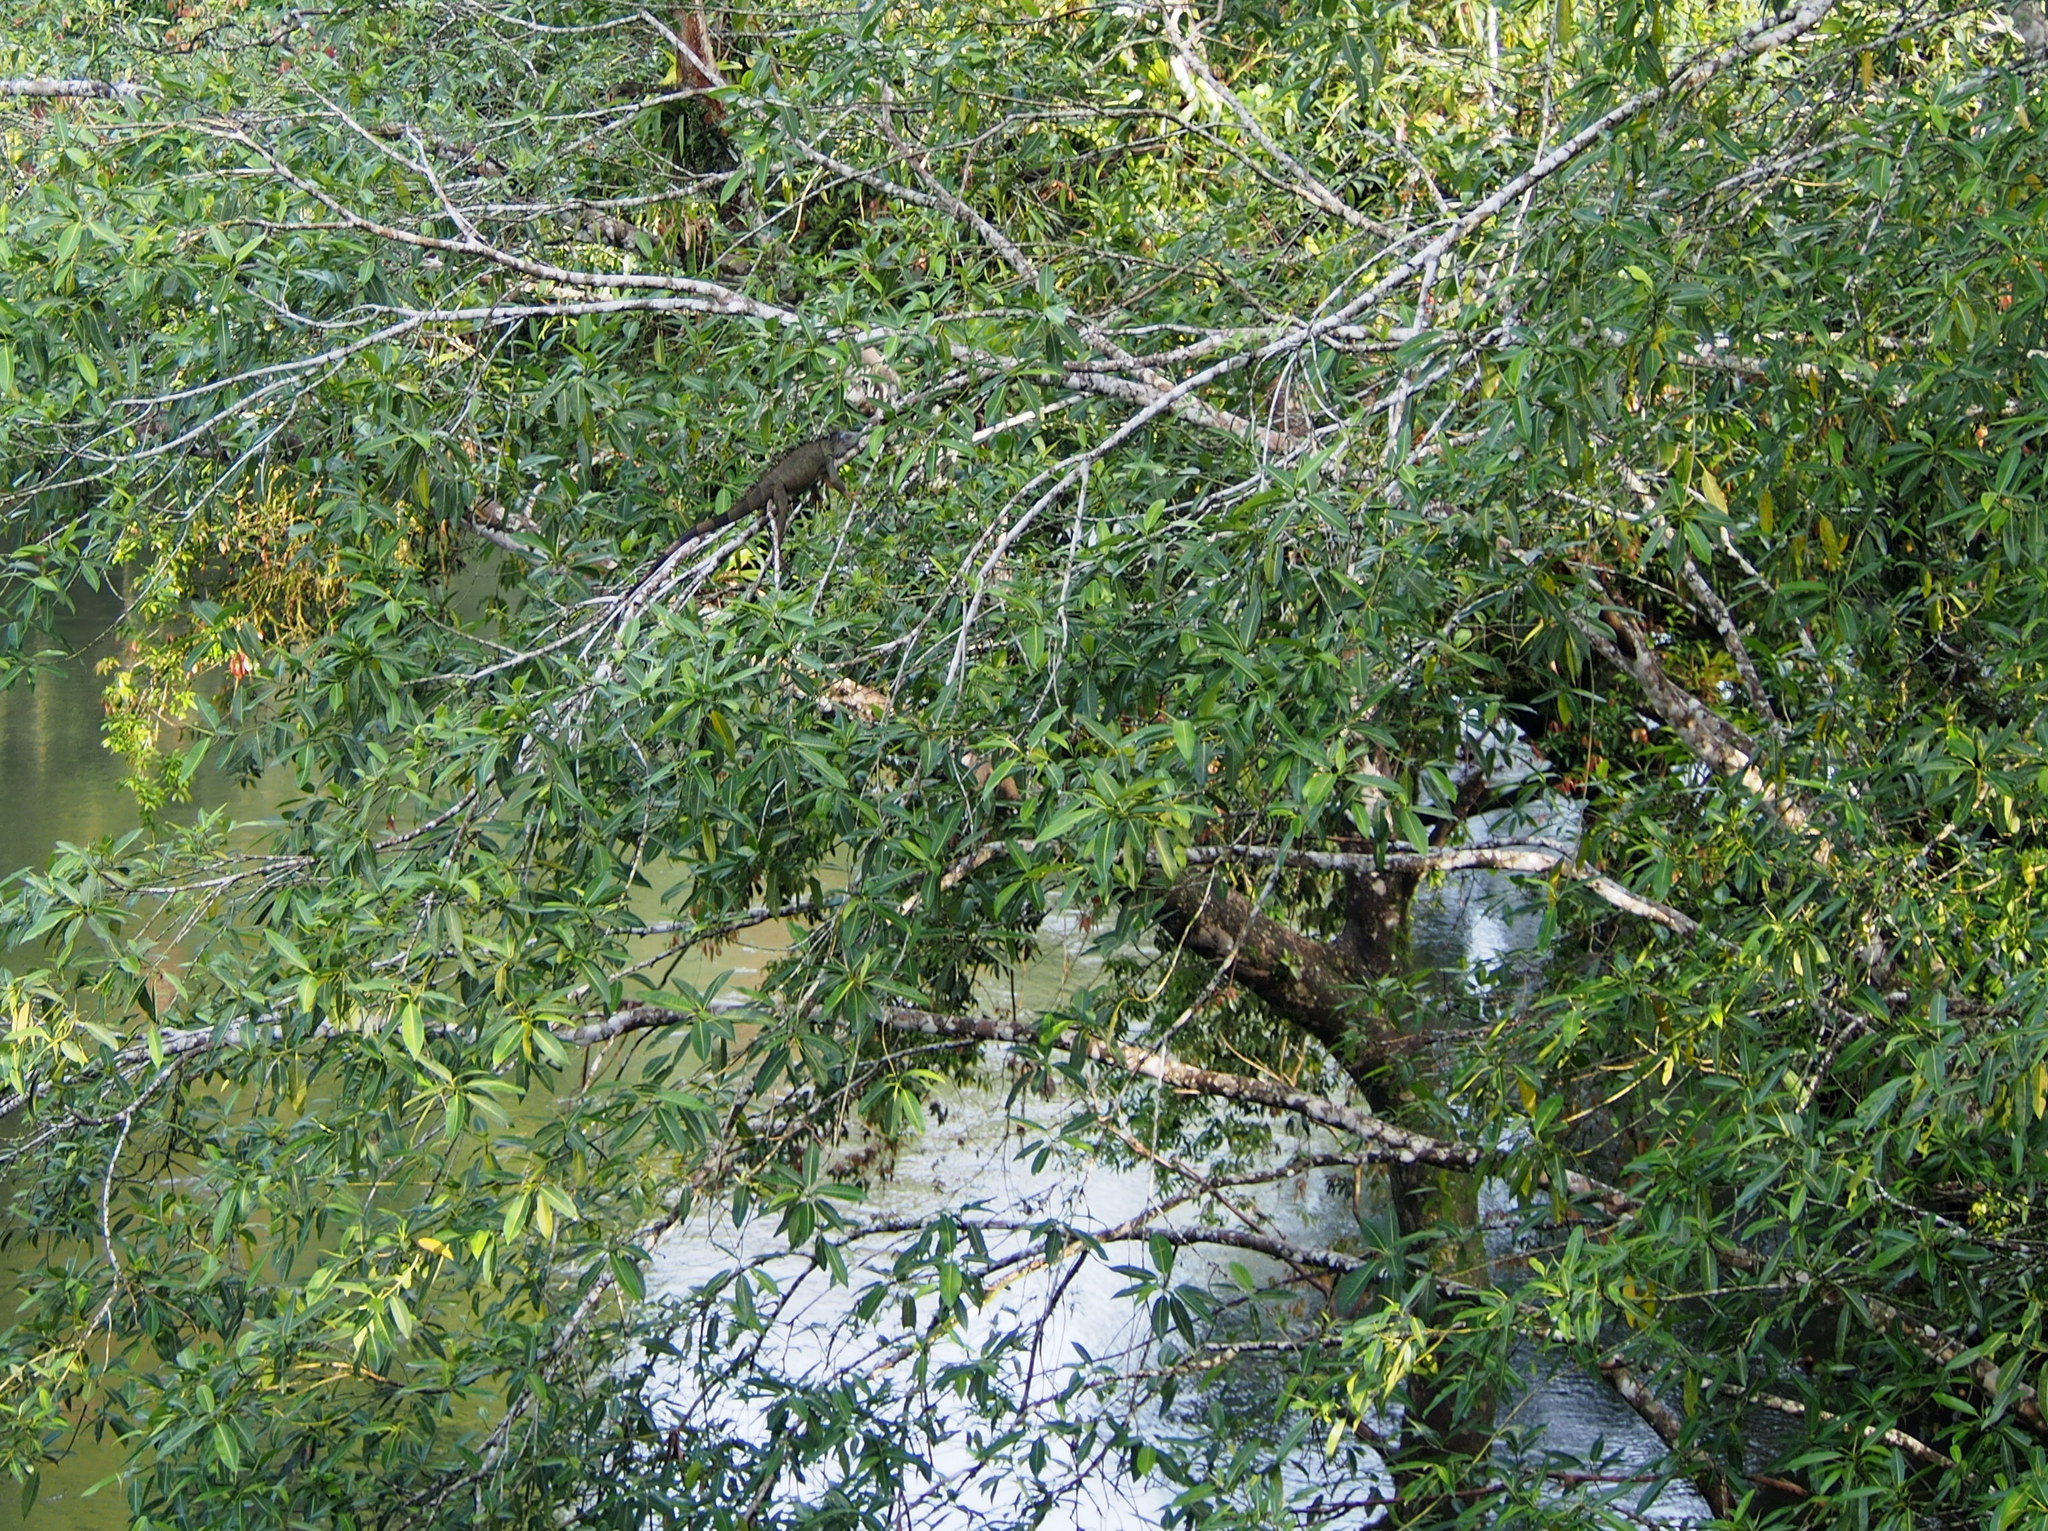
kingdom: Animalia
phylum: Chordata
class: Squamata
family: Iguanidae
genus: Iguana
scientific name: Iguana iguana
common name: Green iguana
